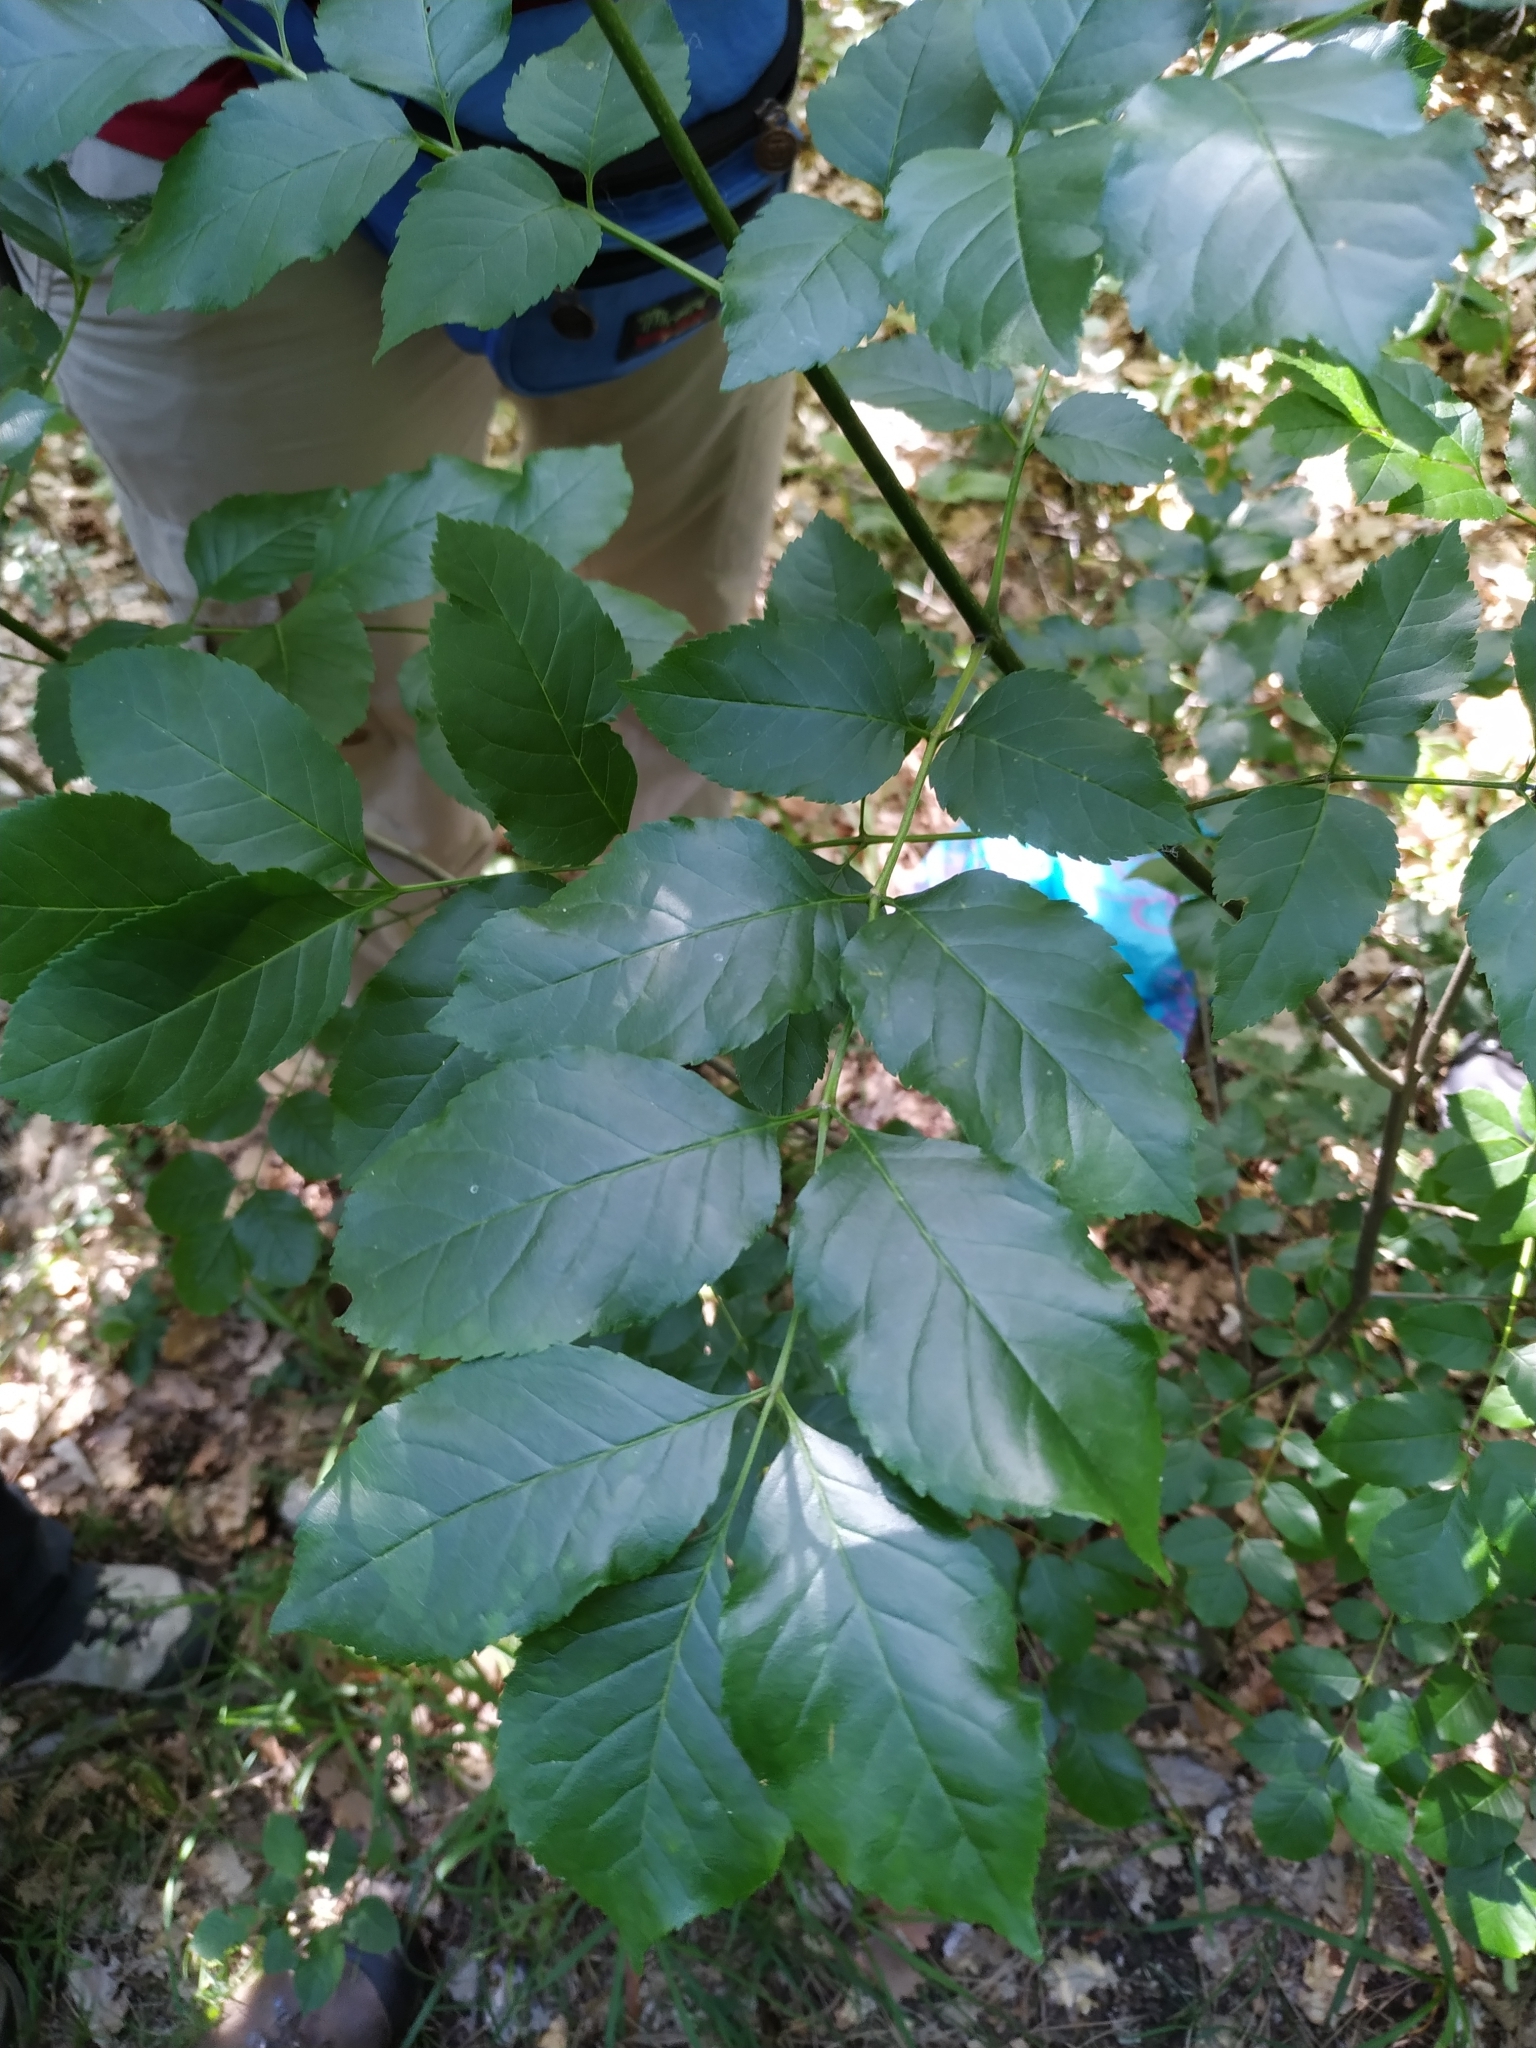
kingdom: Plantae
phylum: Tracheophyta
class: Magnoliopsida
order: Lamiales
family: Oleaceae
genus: Fraxinus
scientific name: Fraxinus ornus
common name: Manna ash
